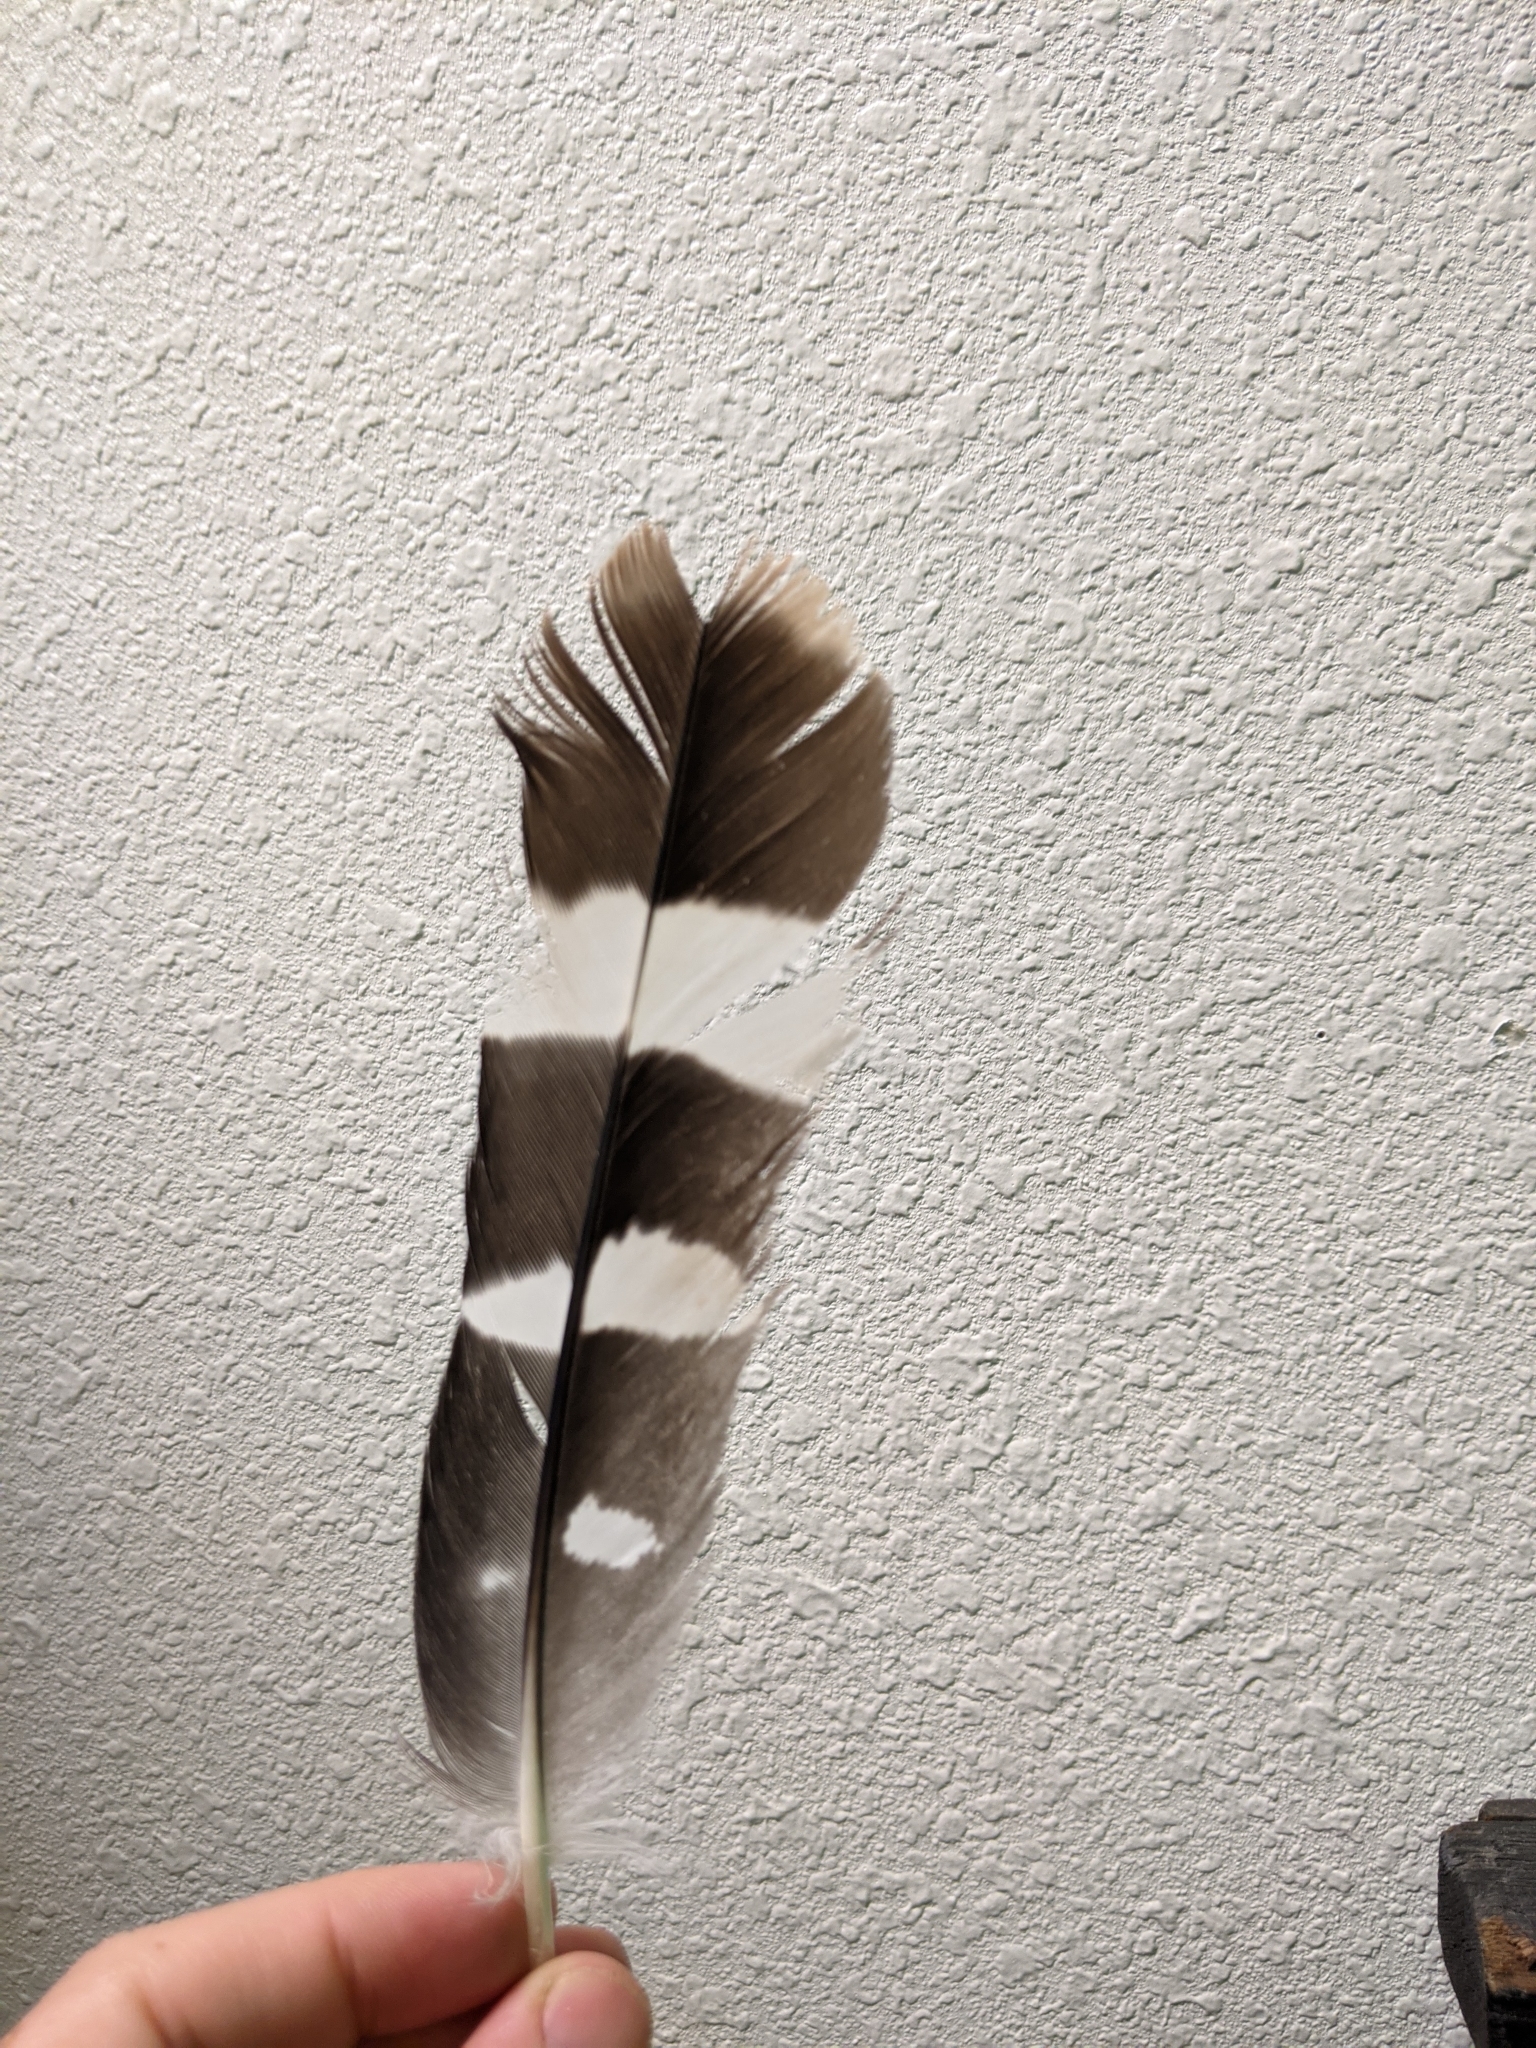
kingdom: Animalia
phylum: Chordata
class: Aves
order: Accipitriformes
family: Accipitridae
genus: Buteo
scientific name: Buteo nitidus
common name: Grey-lined hawk
